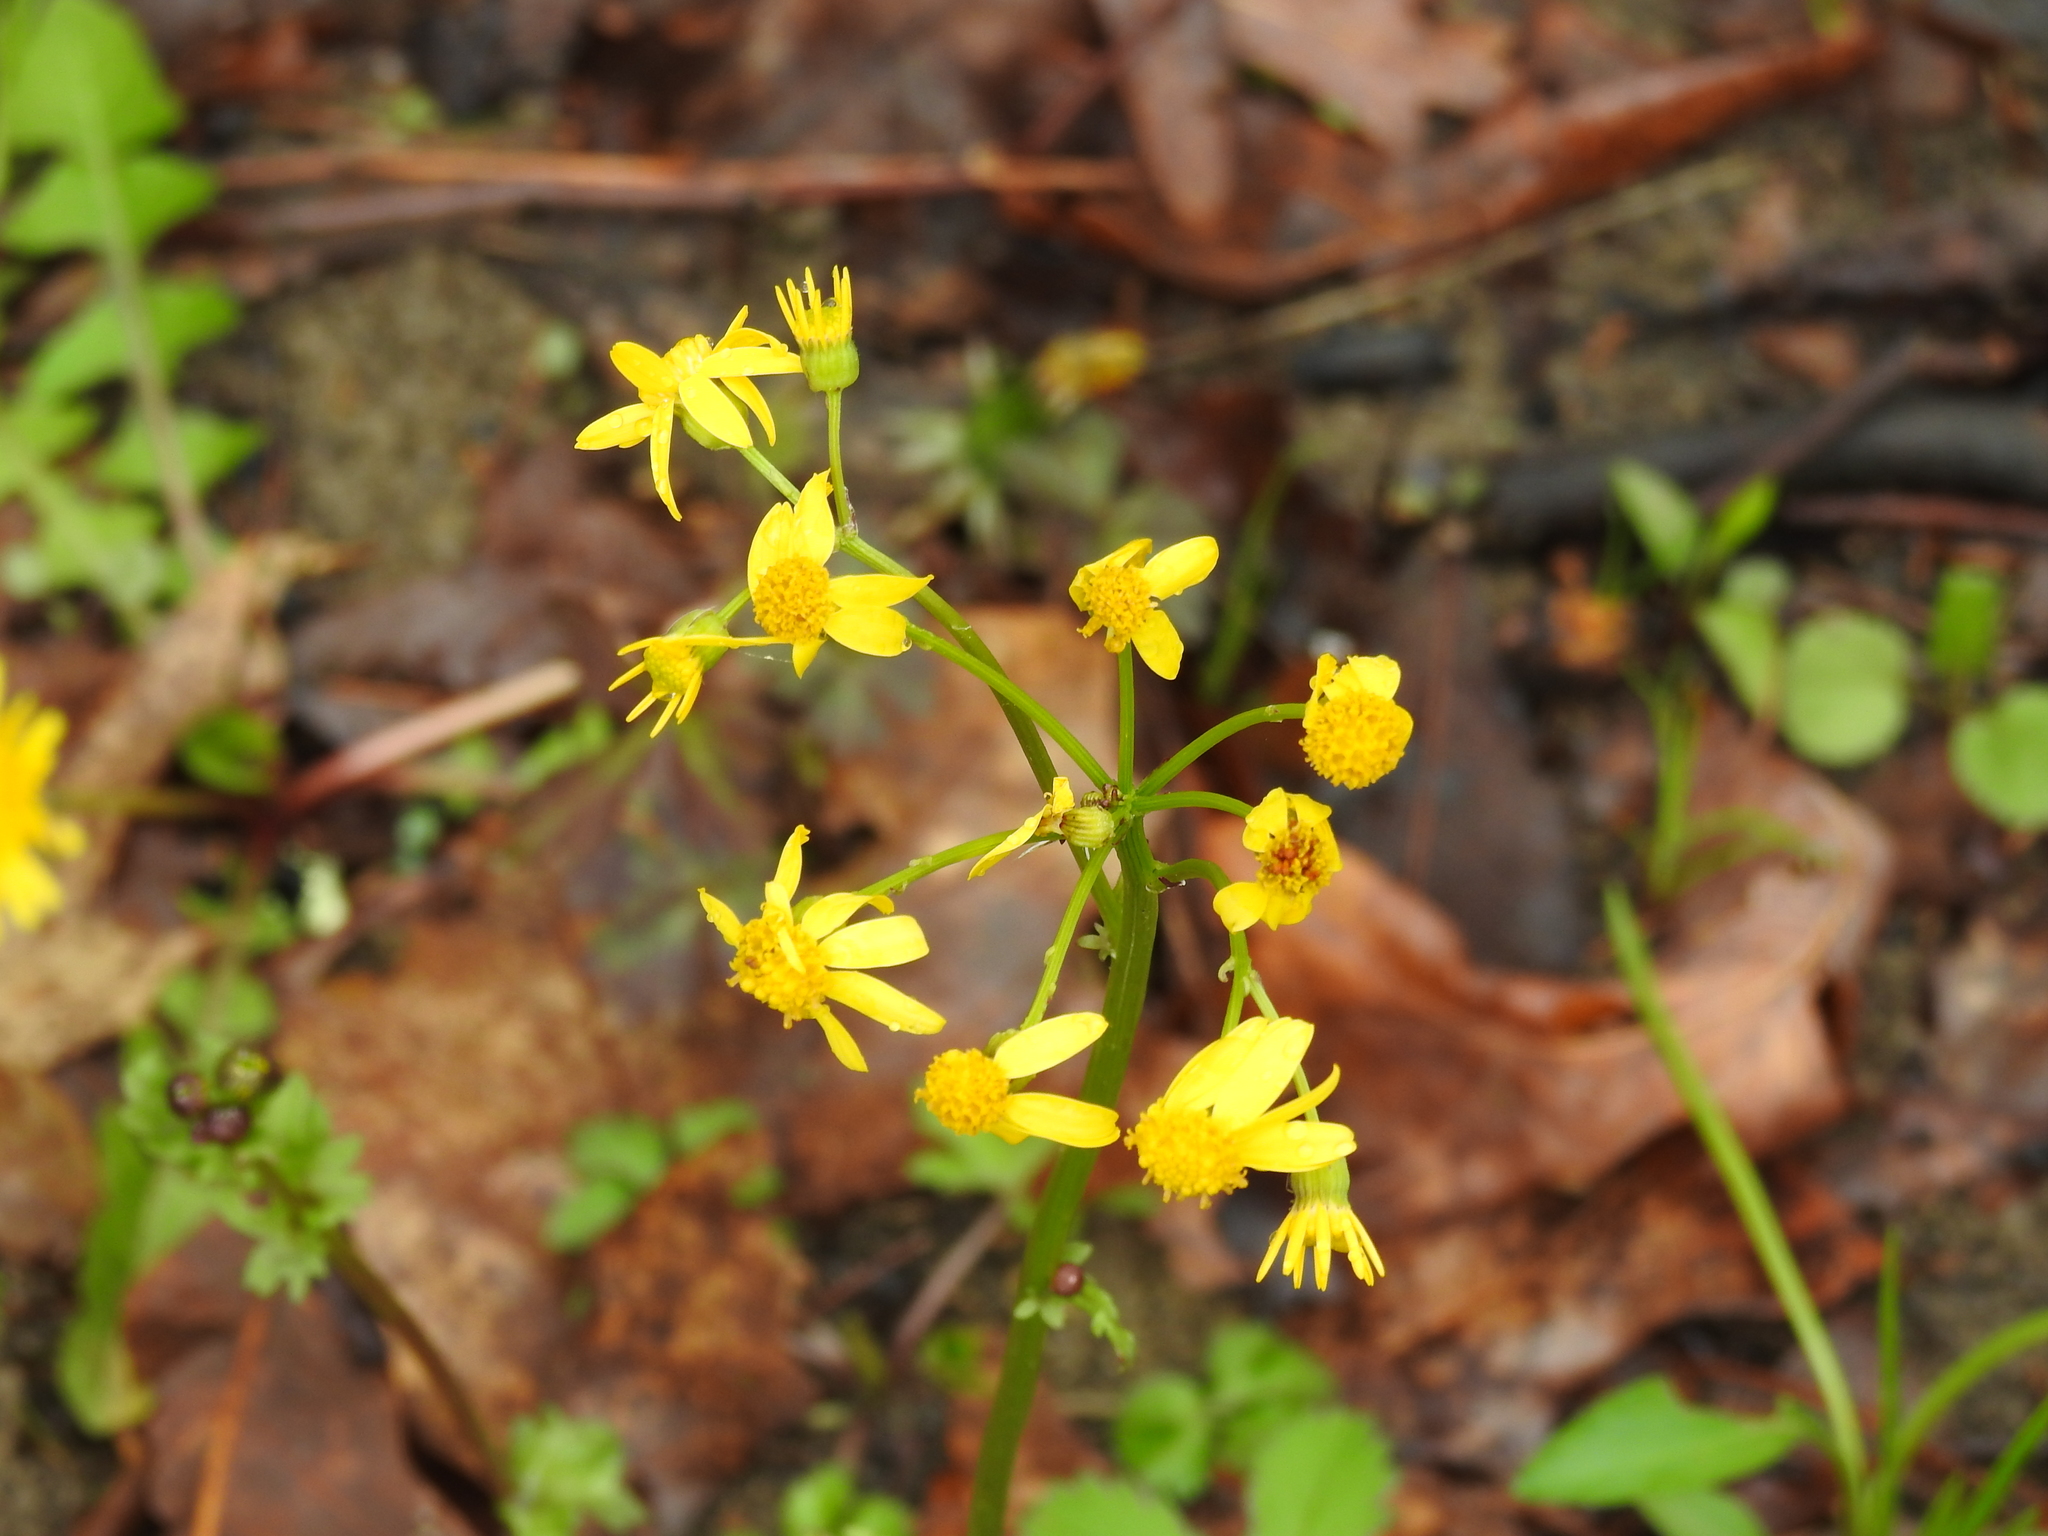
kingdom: Plantae
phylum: Tracheophyta
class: Magnoliopsida
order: Asterales
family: Asteraceae
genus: Packera
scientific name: Packera obovata
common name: Round-leaf ragwort
